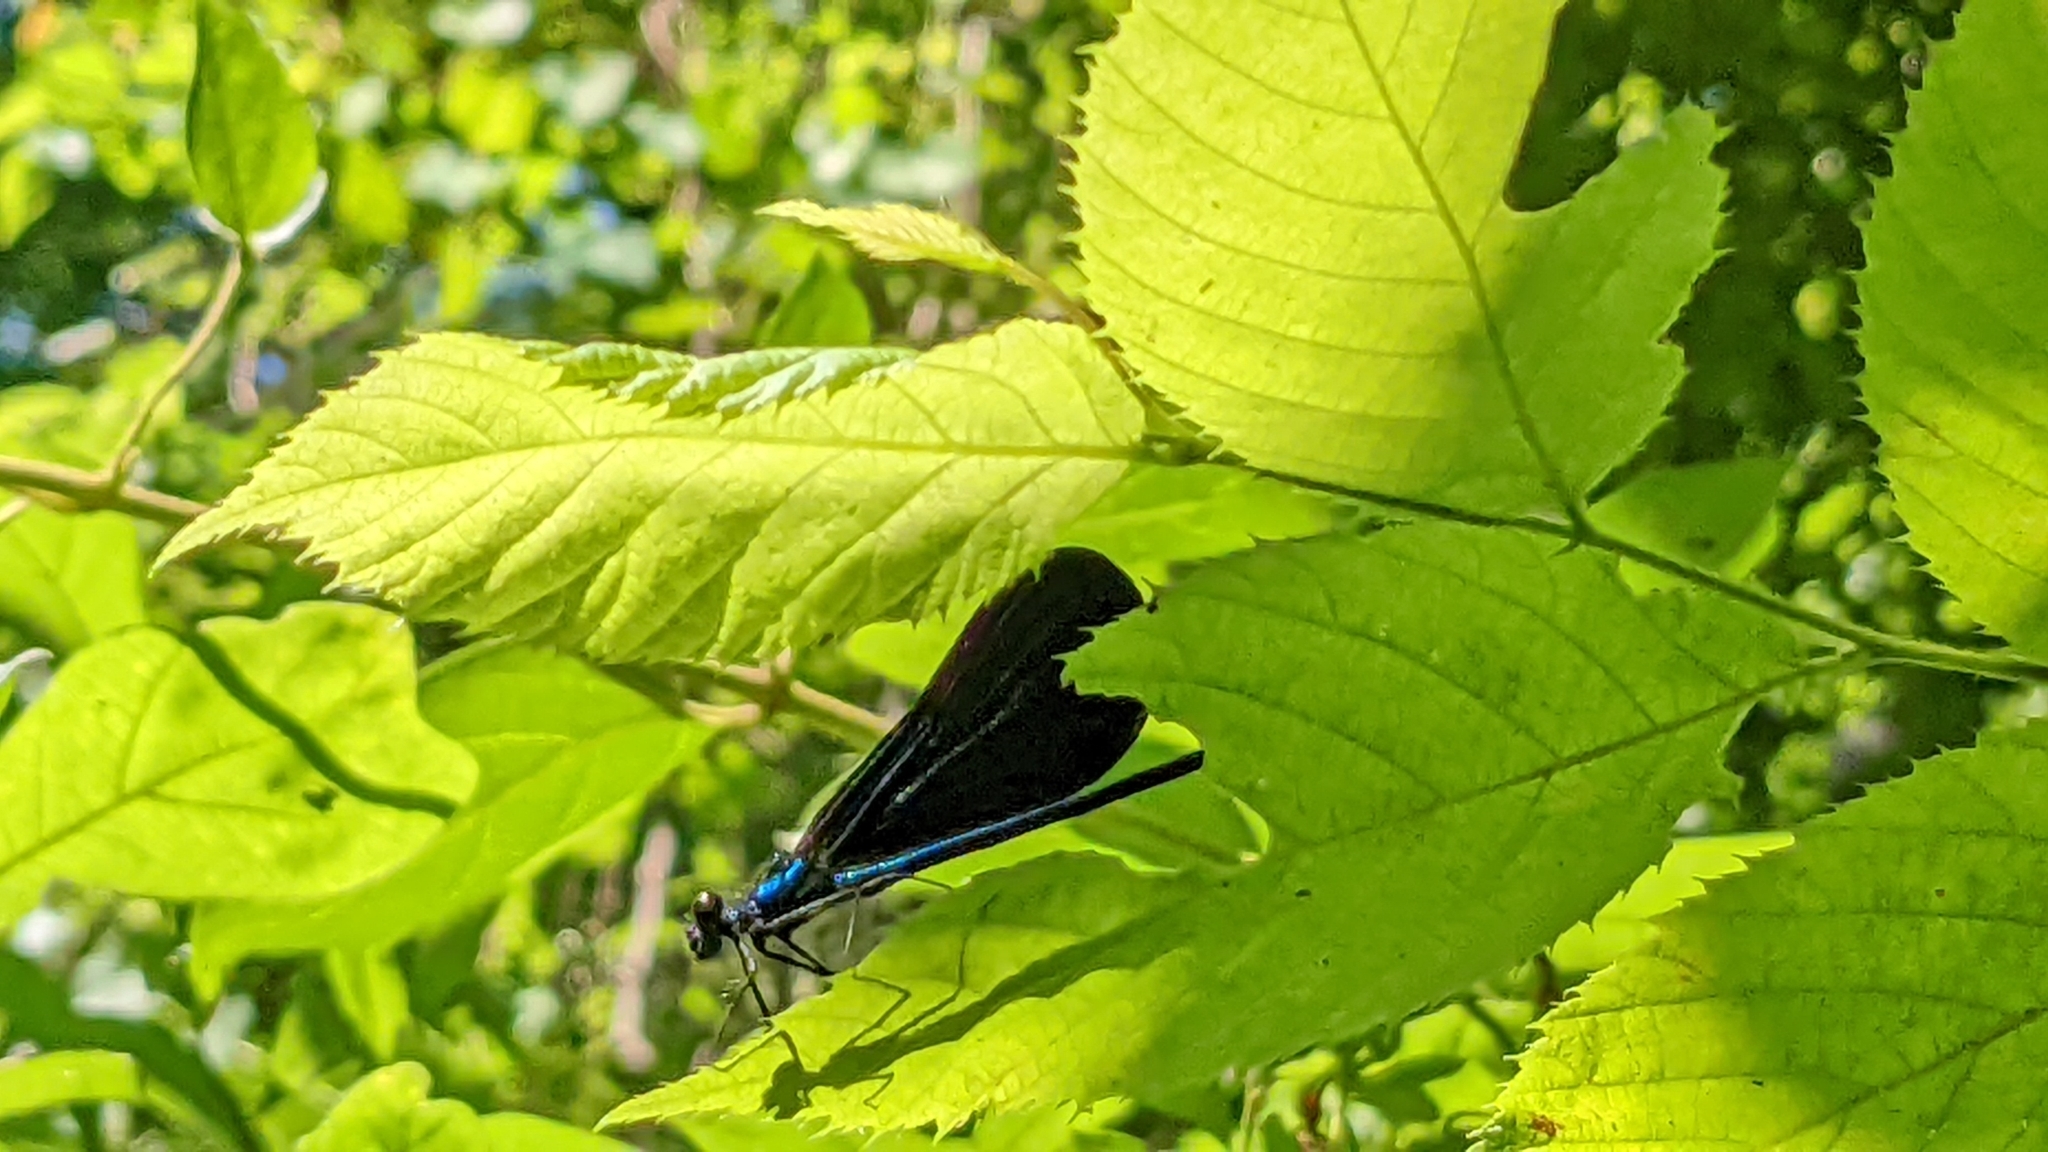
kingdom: Animalia
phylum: Arthropoda
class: Insecta
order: Odonata
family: Calopterygidae
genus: Calopteryx
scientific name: Calopteryx maculata
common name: Ebony jewelwing
